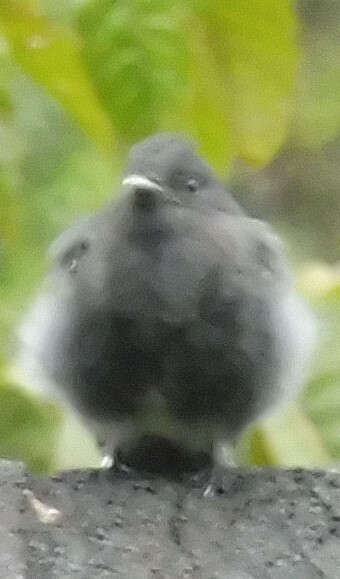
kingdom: Animalia
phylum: Chordata
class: Aves
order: Passeriformes
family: Tyrannidae
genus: Sayornis
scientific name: Sayornis nigricans
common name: Black phoebe
